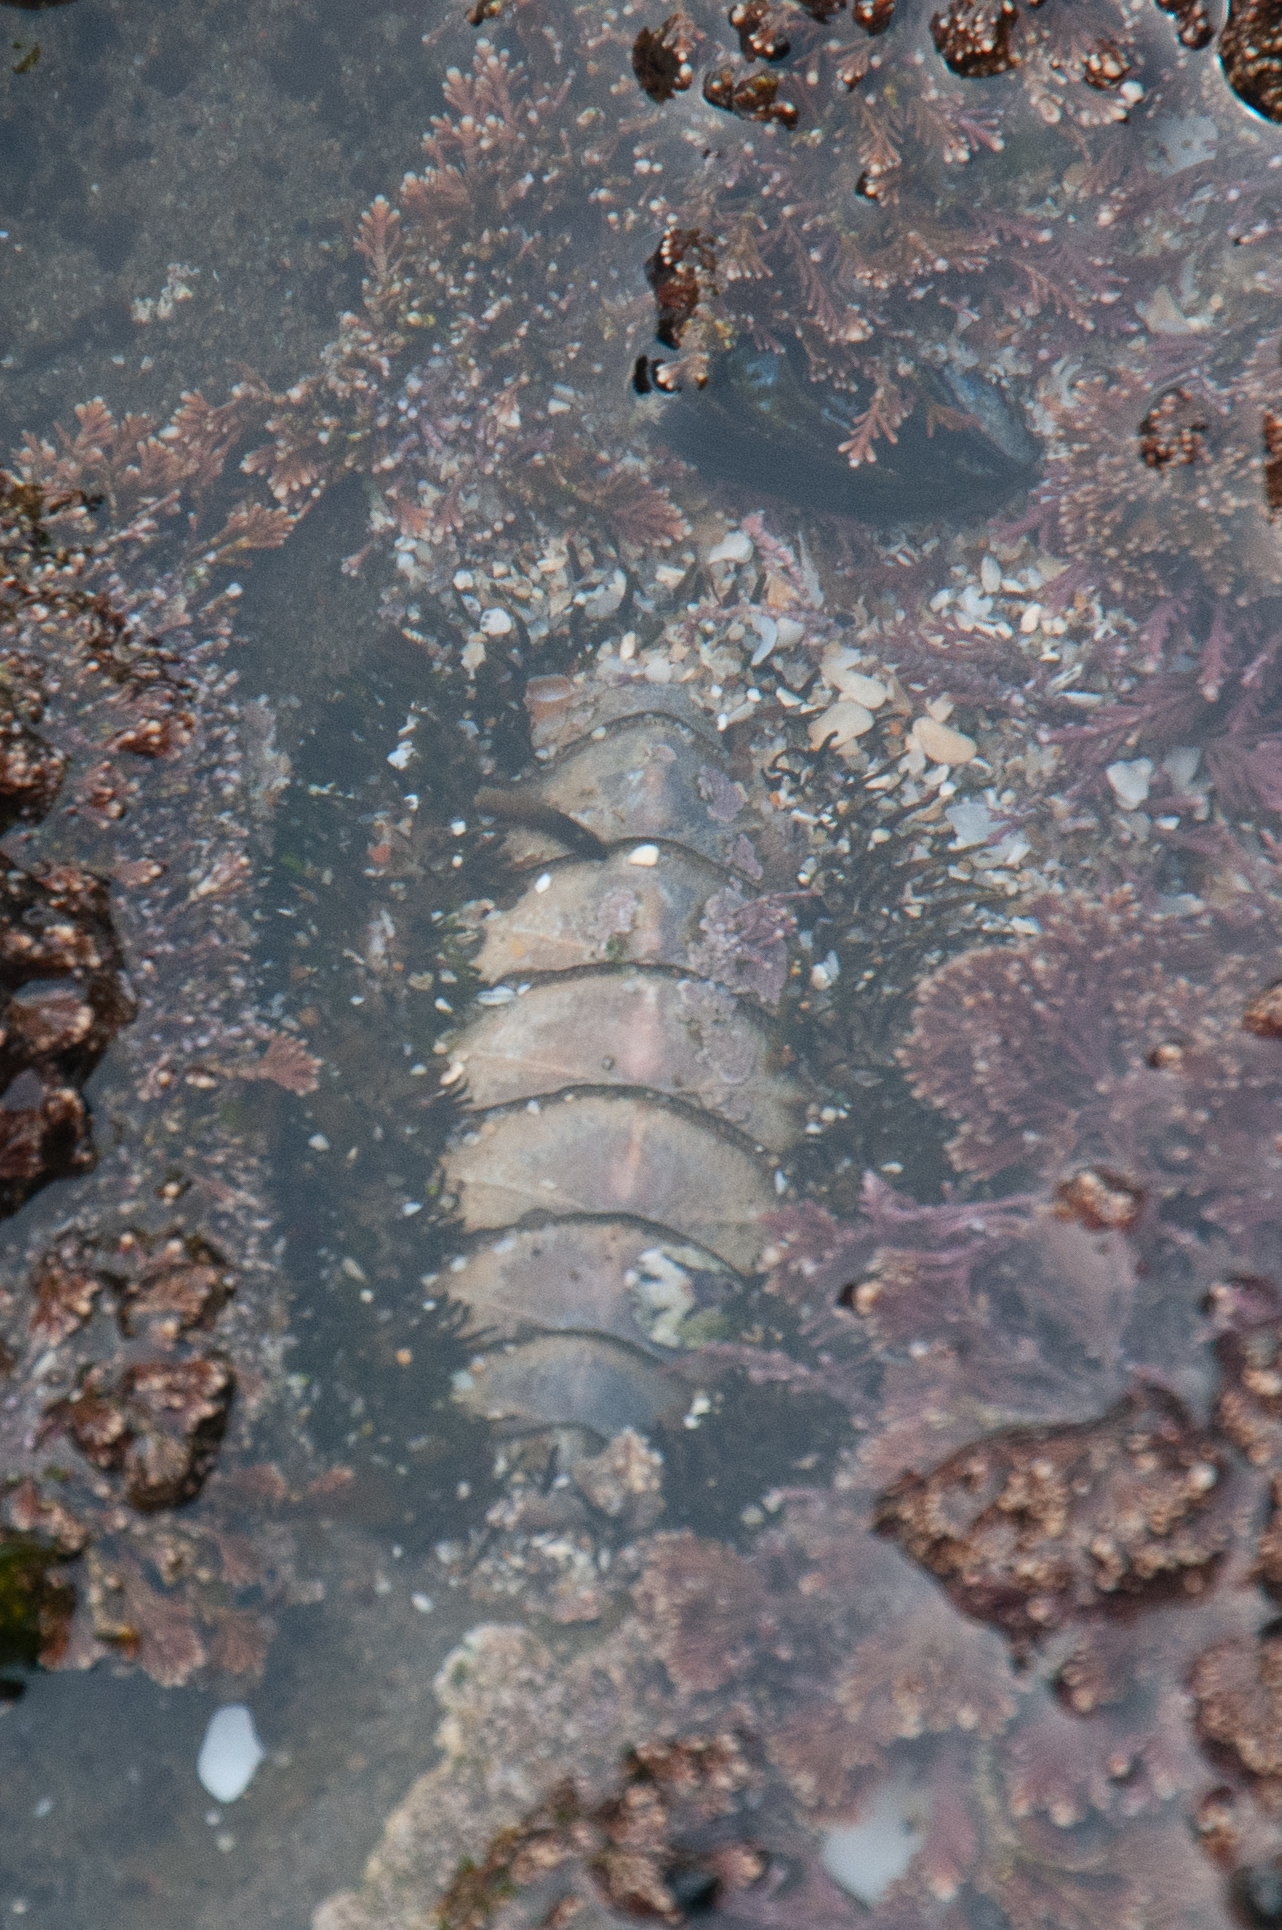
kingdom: Animalia
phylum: Mollusca
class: Polyplacophora
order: Chitonida
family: Mopaliidae
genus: Mopalia
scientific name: Mopalia muscosa
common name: Mossy chiton
